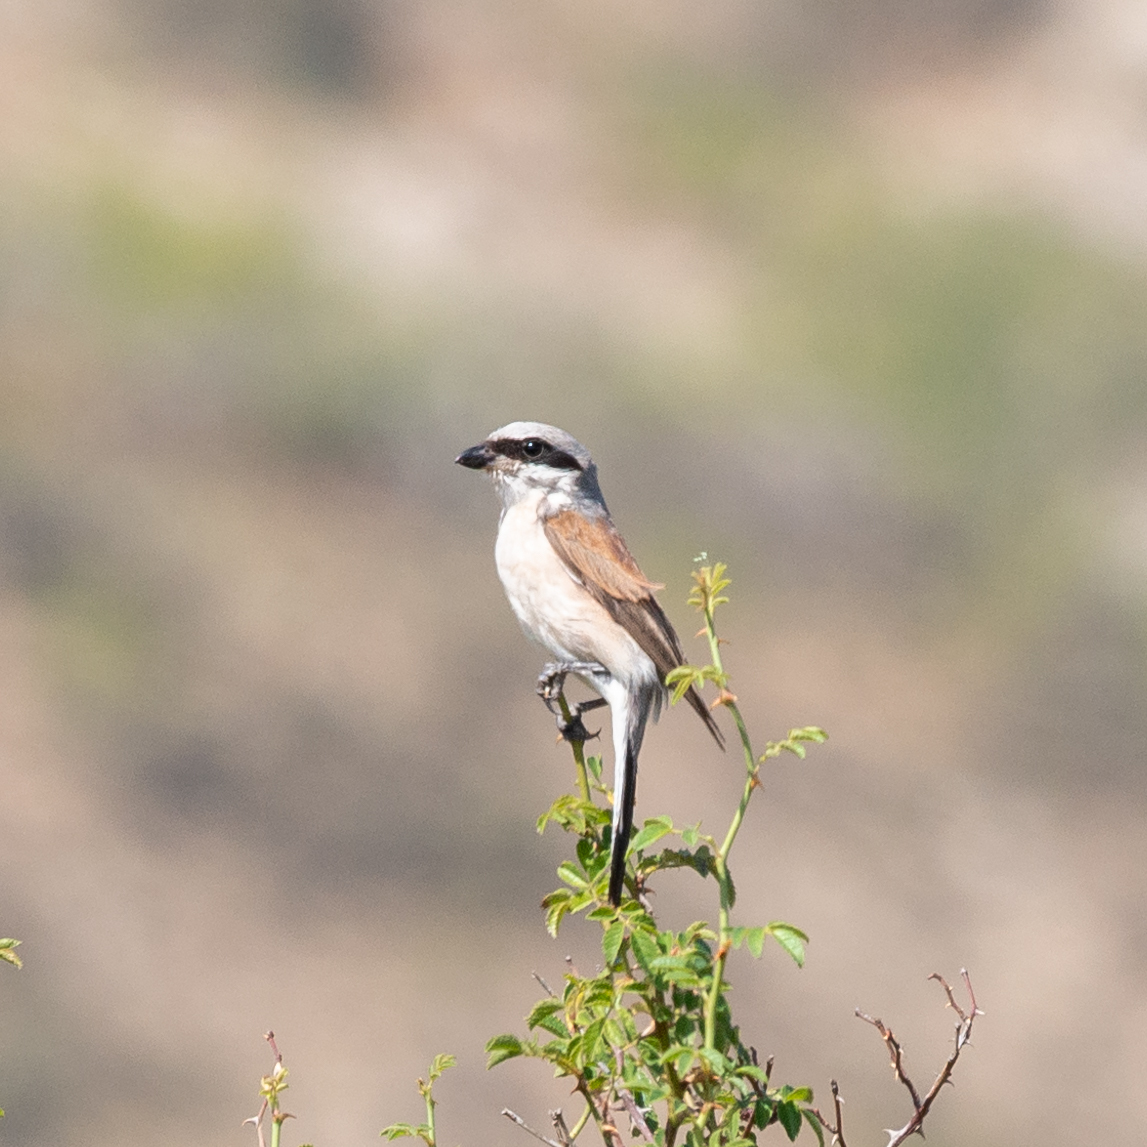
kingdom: Animalia
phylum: Chordata
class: Aves
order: Passeriformes
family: Laniidae
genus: Lanius
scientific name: Lanius collurio
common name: Red-backed shrike
